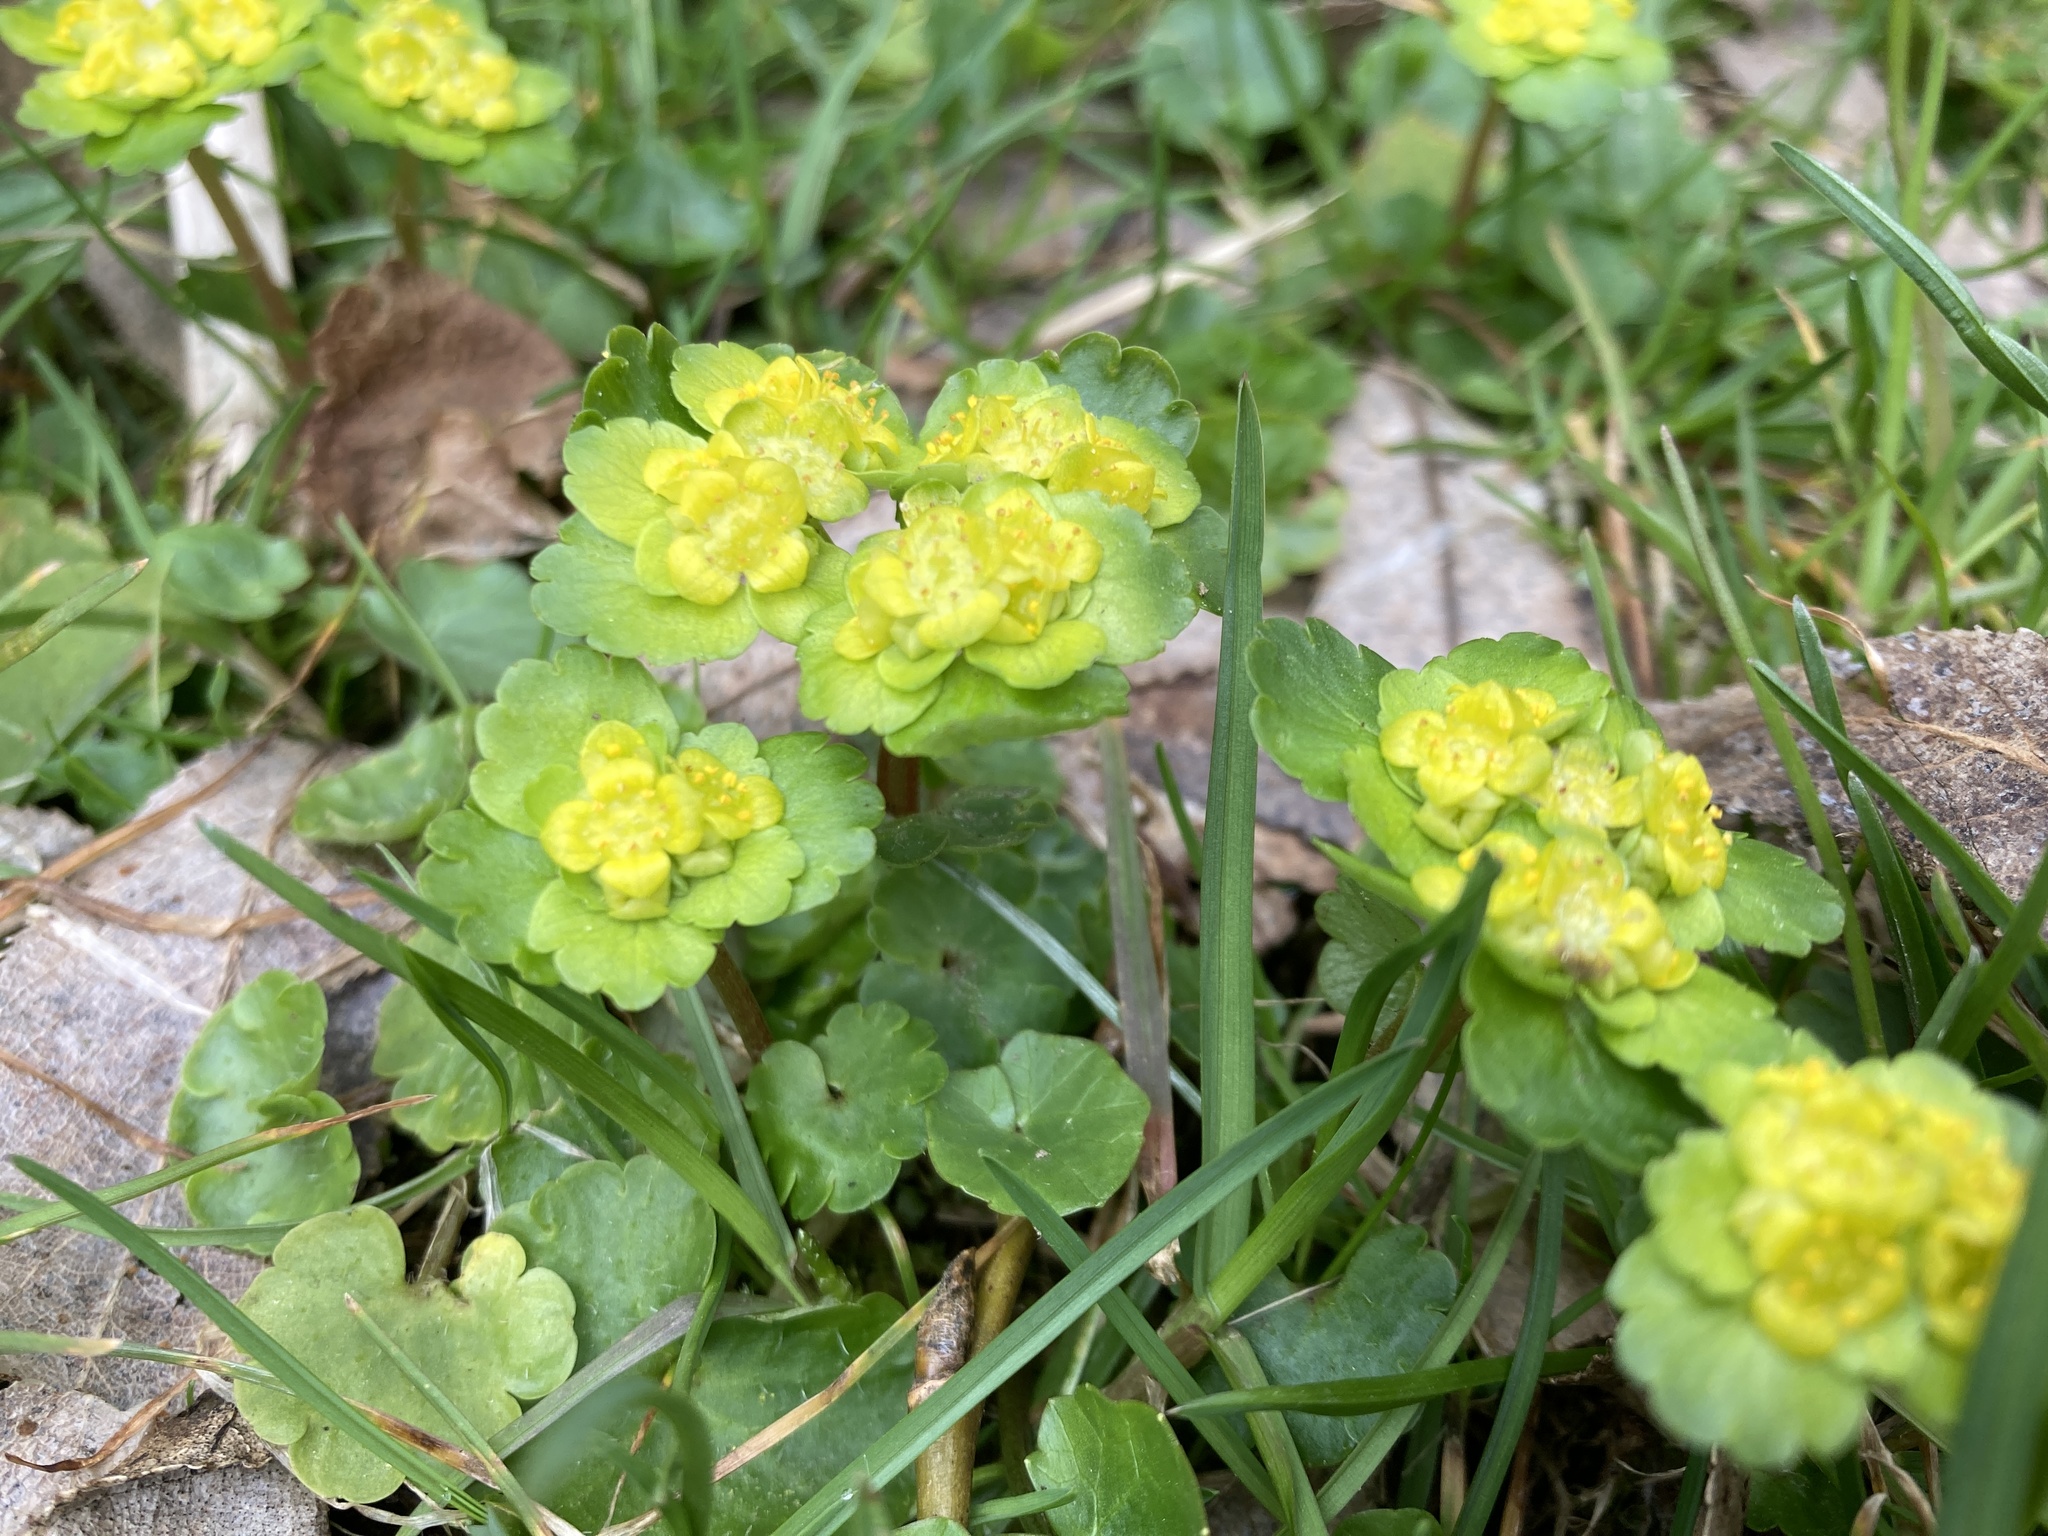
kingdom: Plantae
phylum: Tracheophyta
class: Magnoliopsida
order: Saxifragales
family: Saxifragaceae
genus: Chrysosplenium
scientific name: Chrysosplenium alternifolium
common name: Alternate-leaved golden-saxifrage
